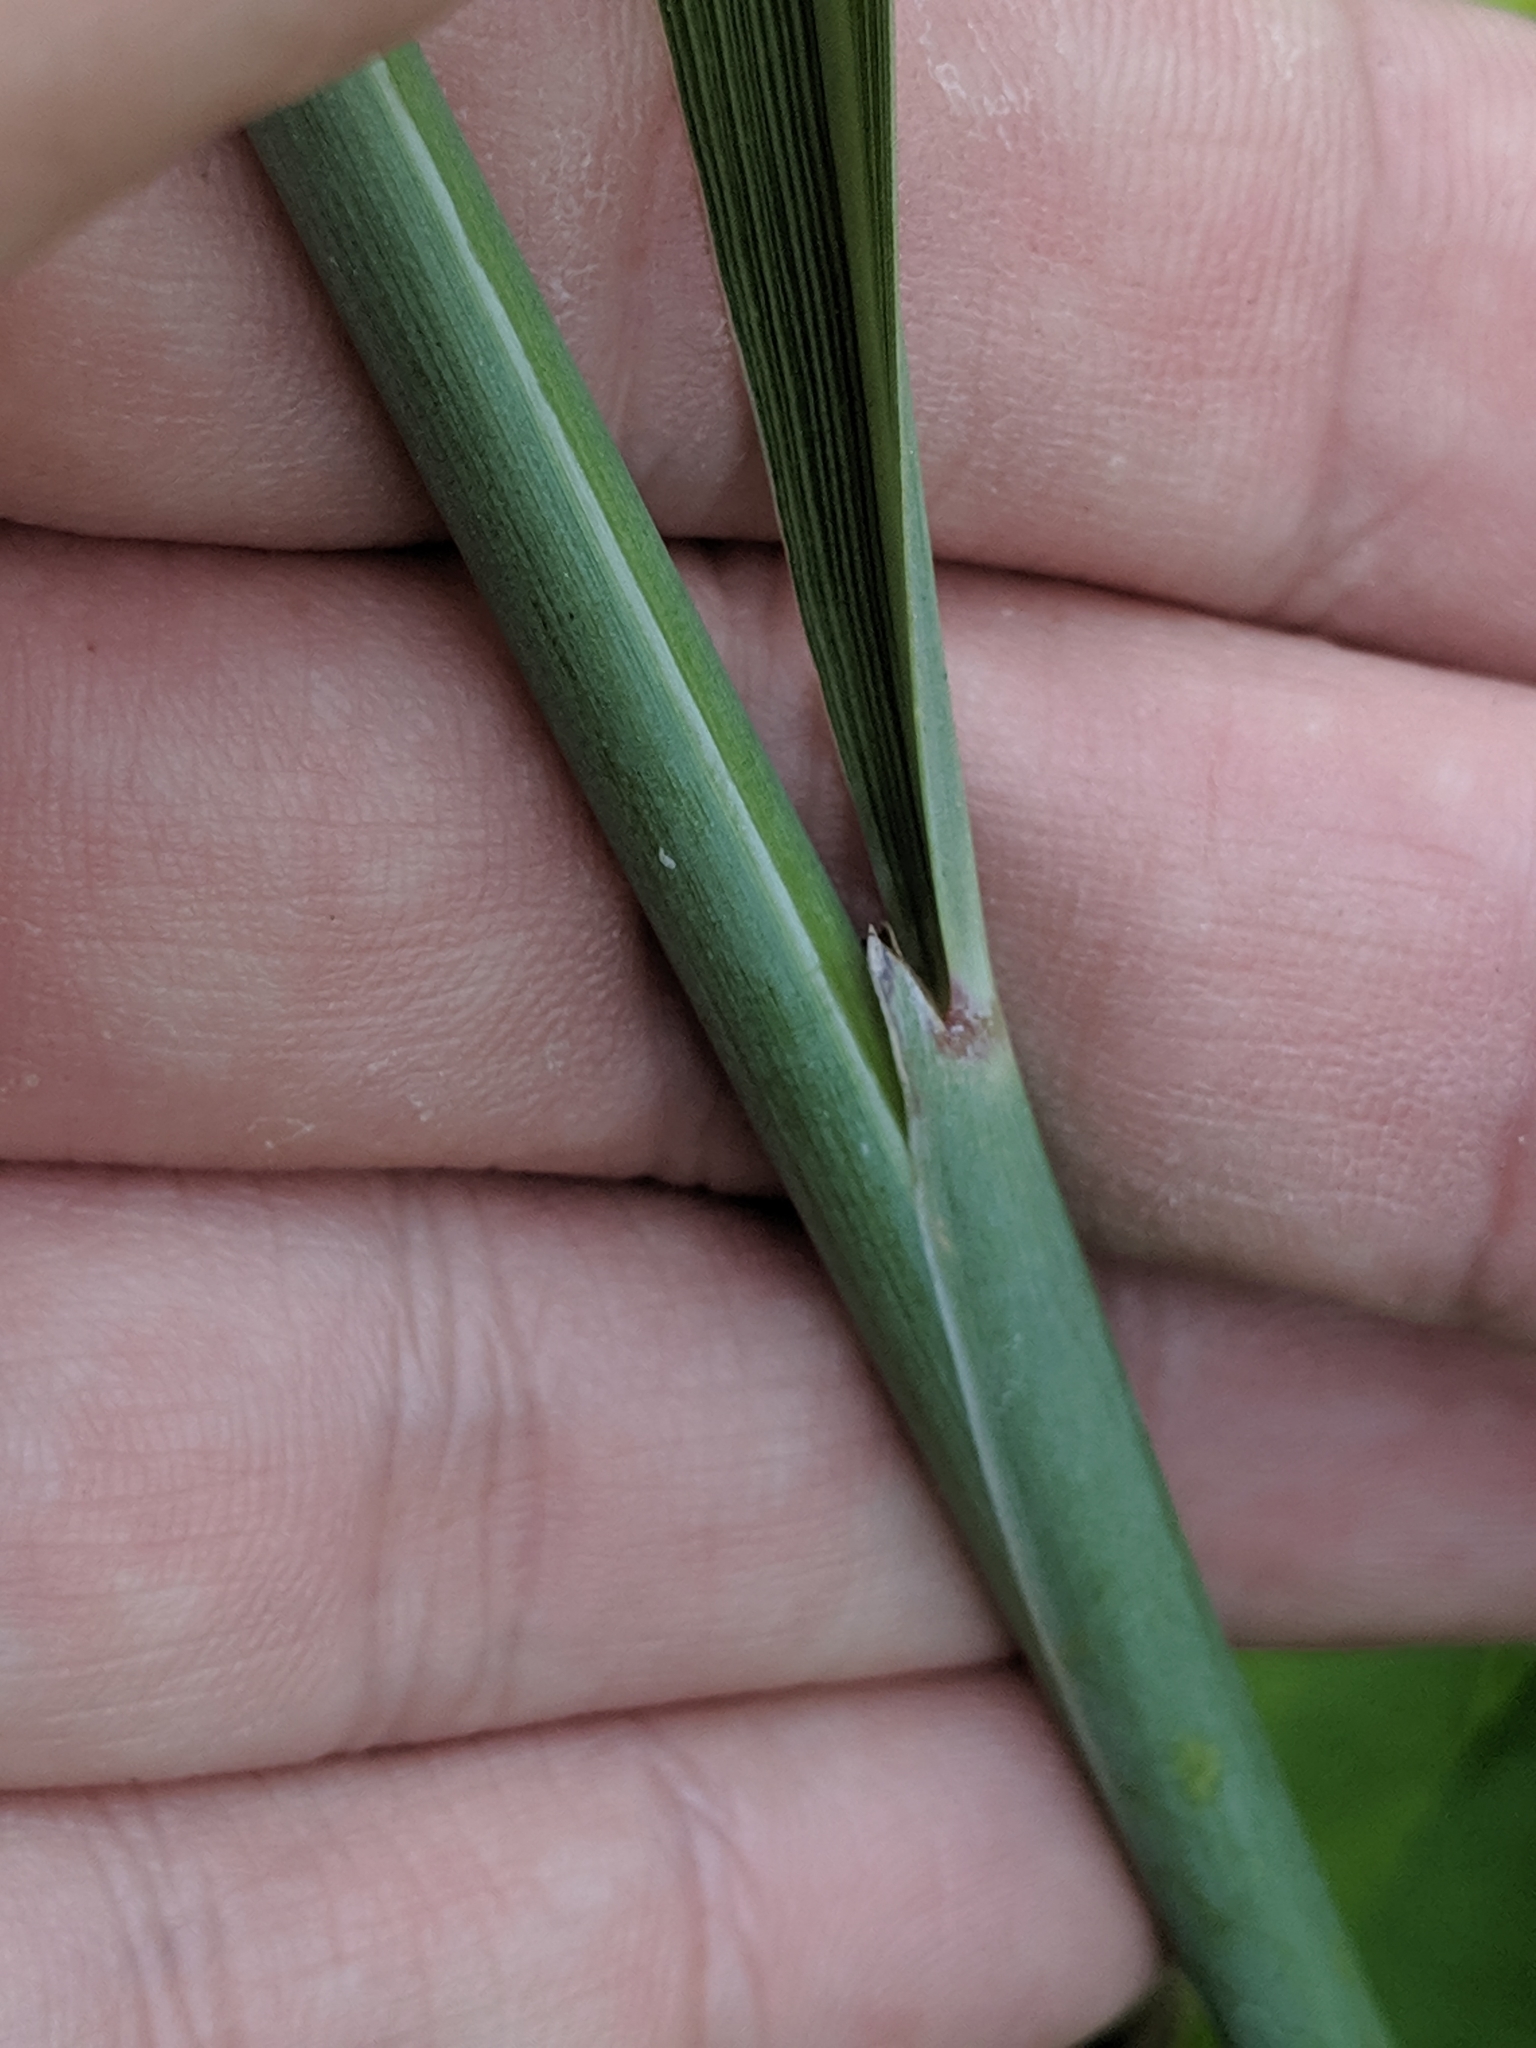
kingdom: Plantae
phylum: Tracheophyta
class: Liliopsida
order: Poales
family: Poaceae
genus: Sorghastrum
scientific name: Sorghastrum nutans
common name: Indian grass
